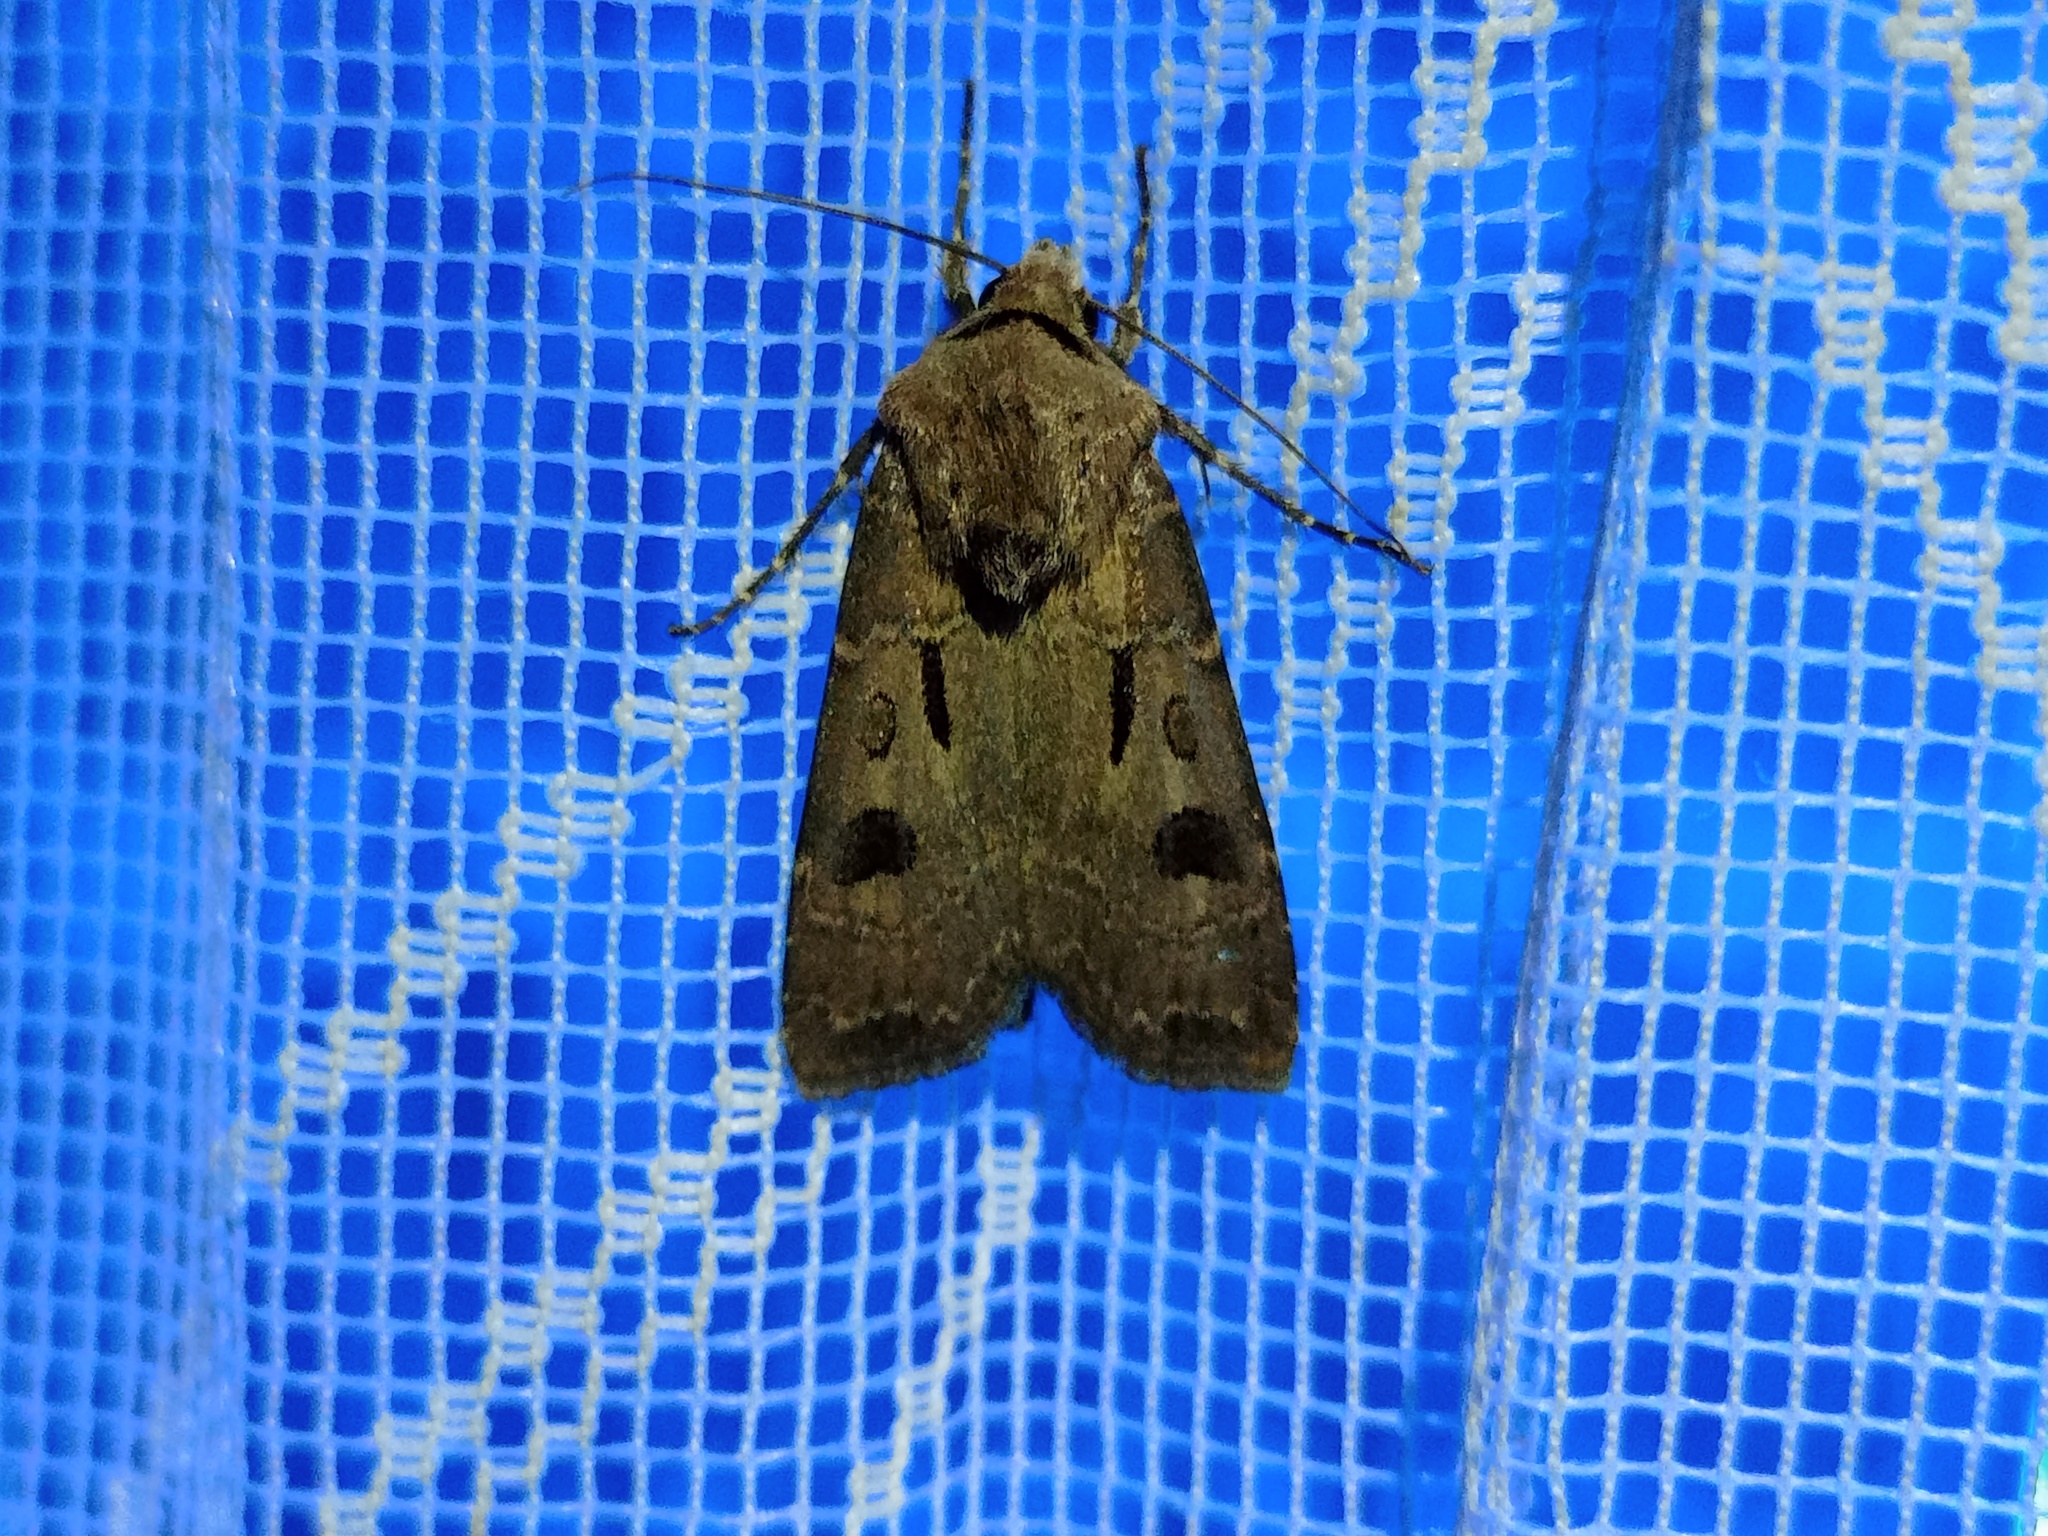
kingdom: Animalia
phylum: Arthropoda
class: Insecta
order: Lepidoptera
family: Noctuidae
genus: Agrotis
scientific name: Agrotis exclamationis
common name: Heart and dart
